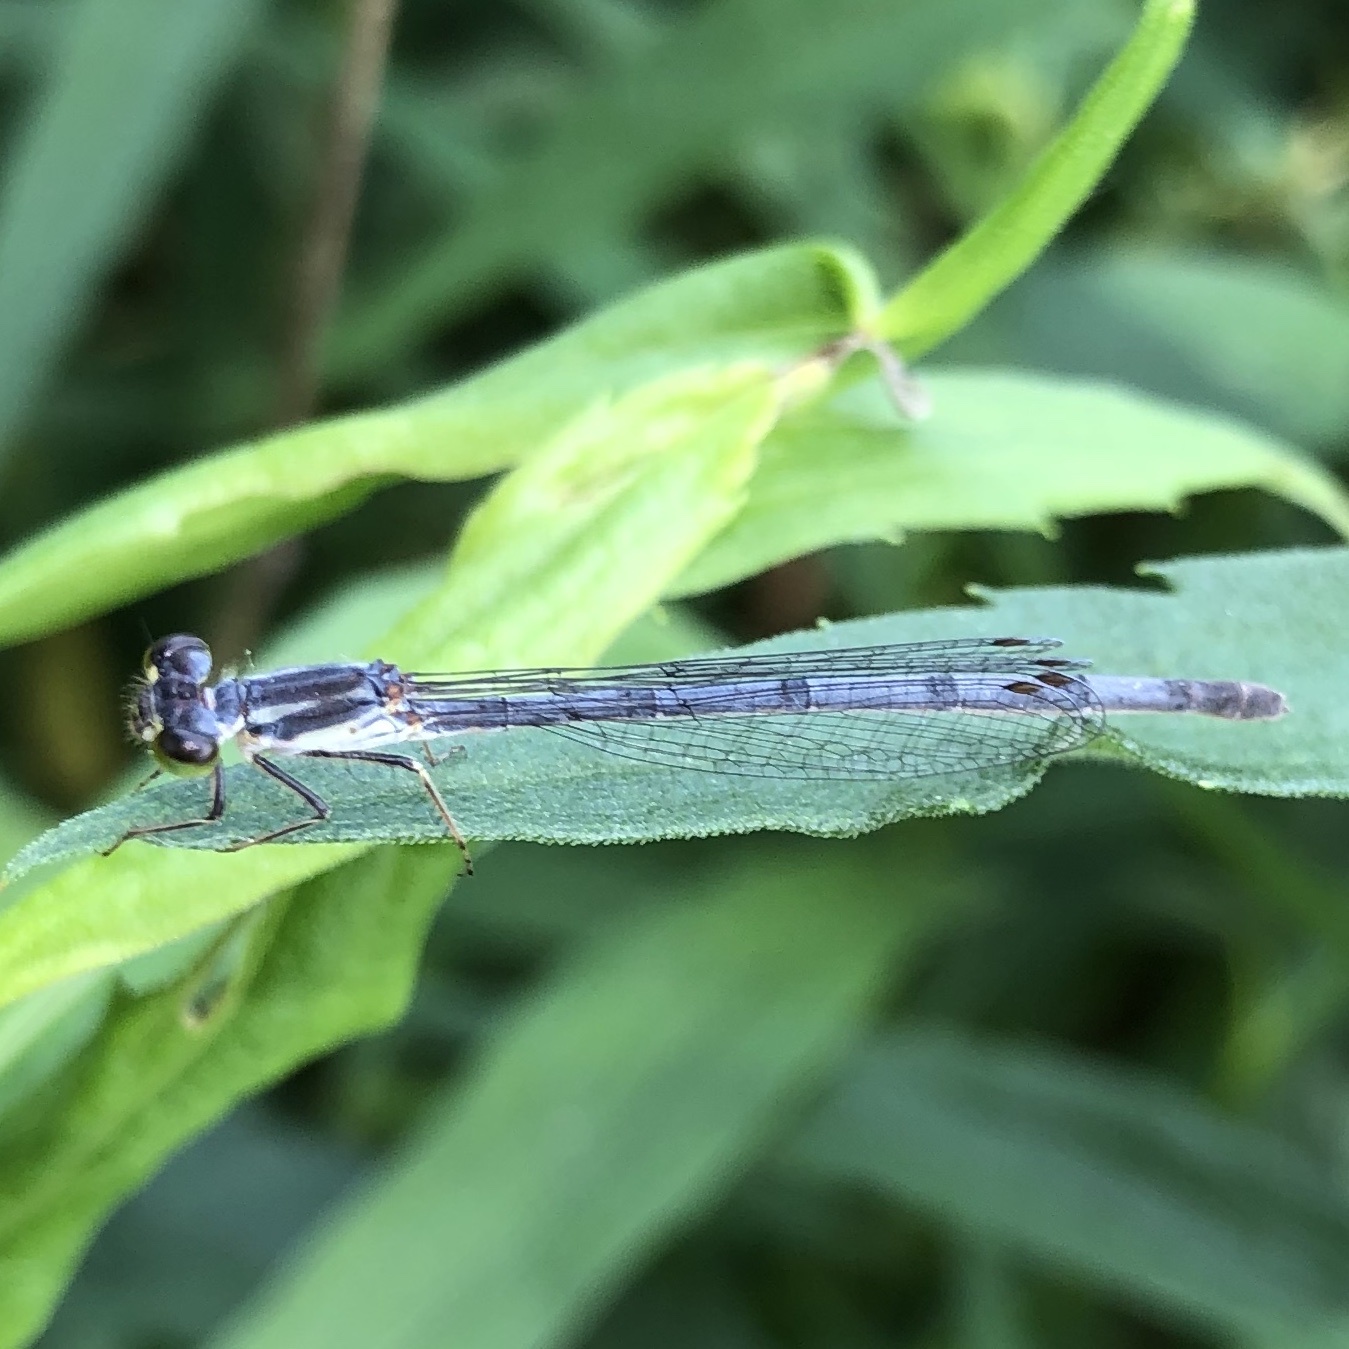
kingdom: Animalia
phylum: Arthropoda
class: Insecta
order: Odonata
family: Coenagrionidae
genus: Ischnura
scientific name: Ischnura posita
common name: Fragile forktail
